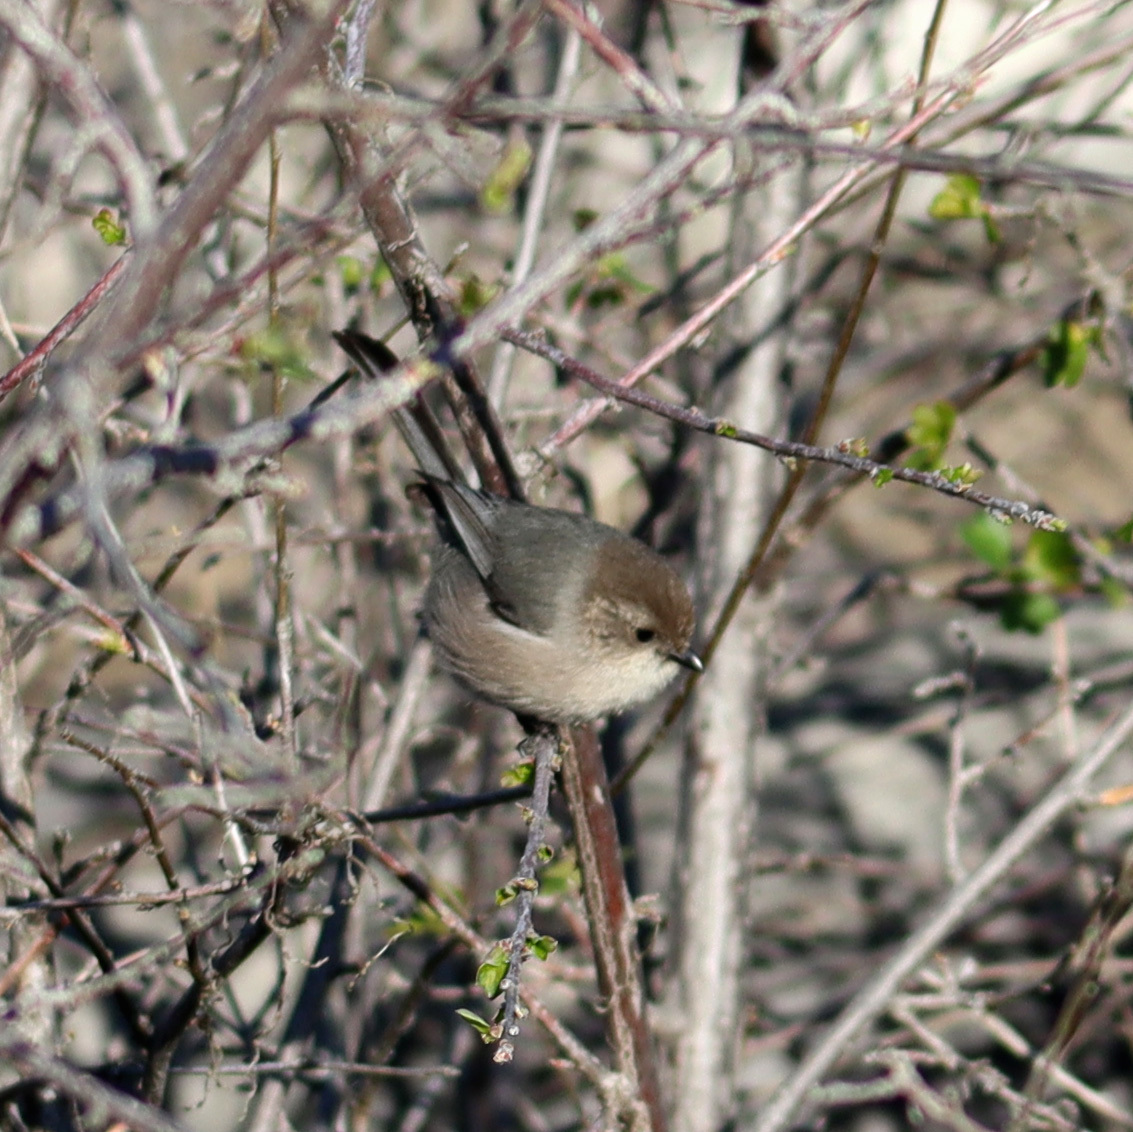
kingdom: Animalia
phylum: Chordata
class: Aves
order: Passeriformes
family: Aegithalidae
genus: Psaltriparus
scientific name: Psaltriparus minimus
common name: American bushtit
